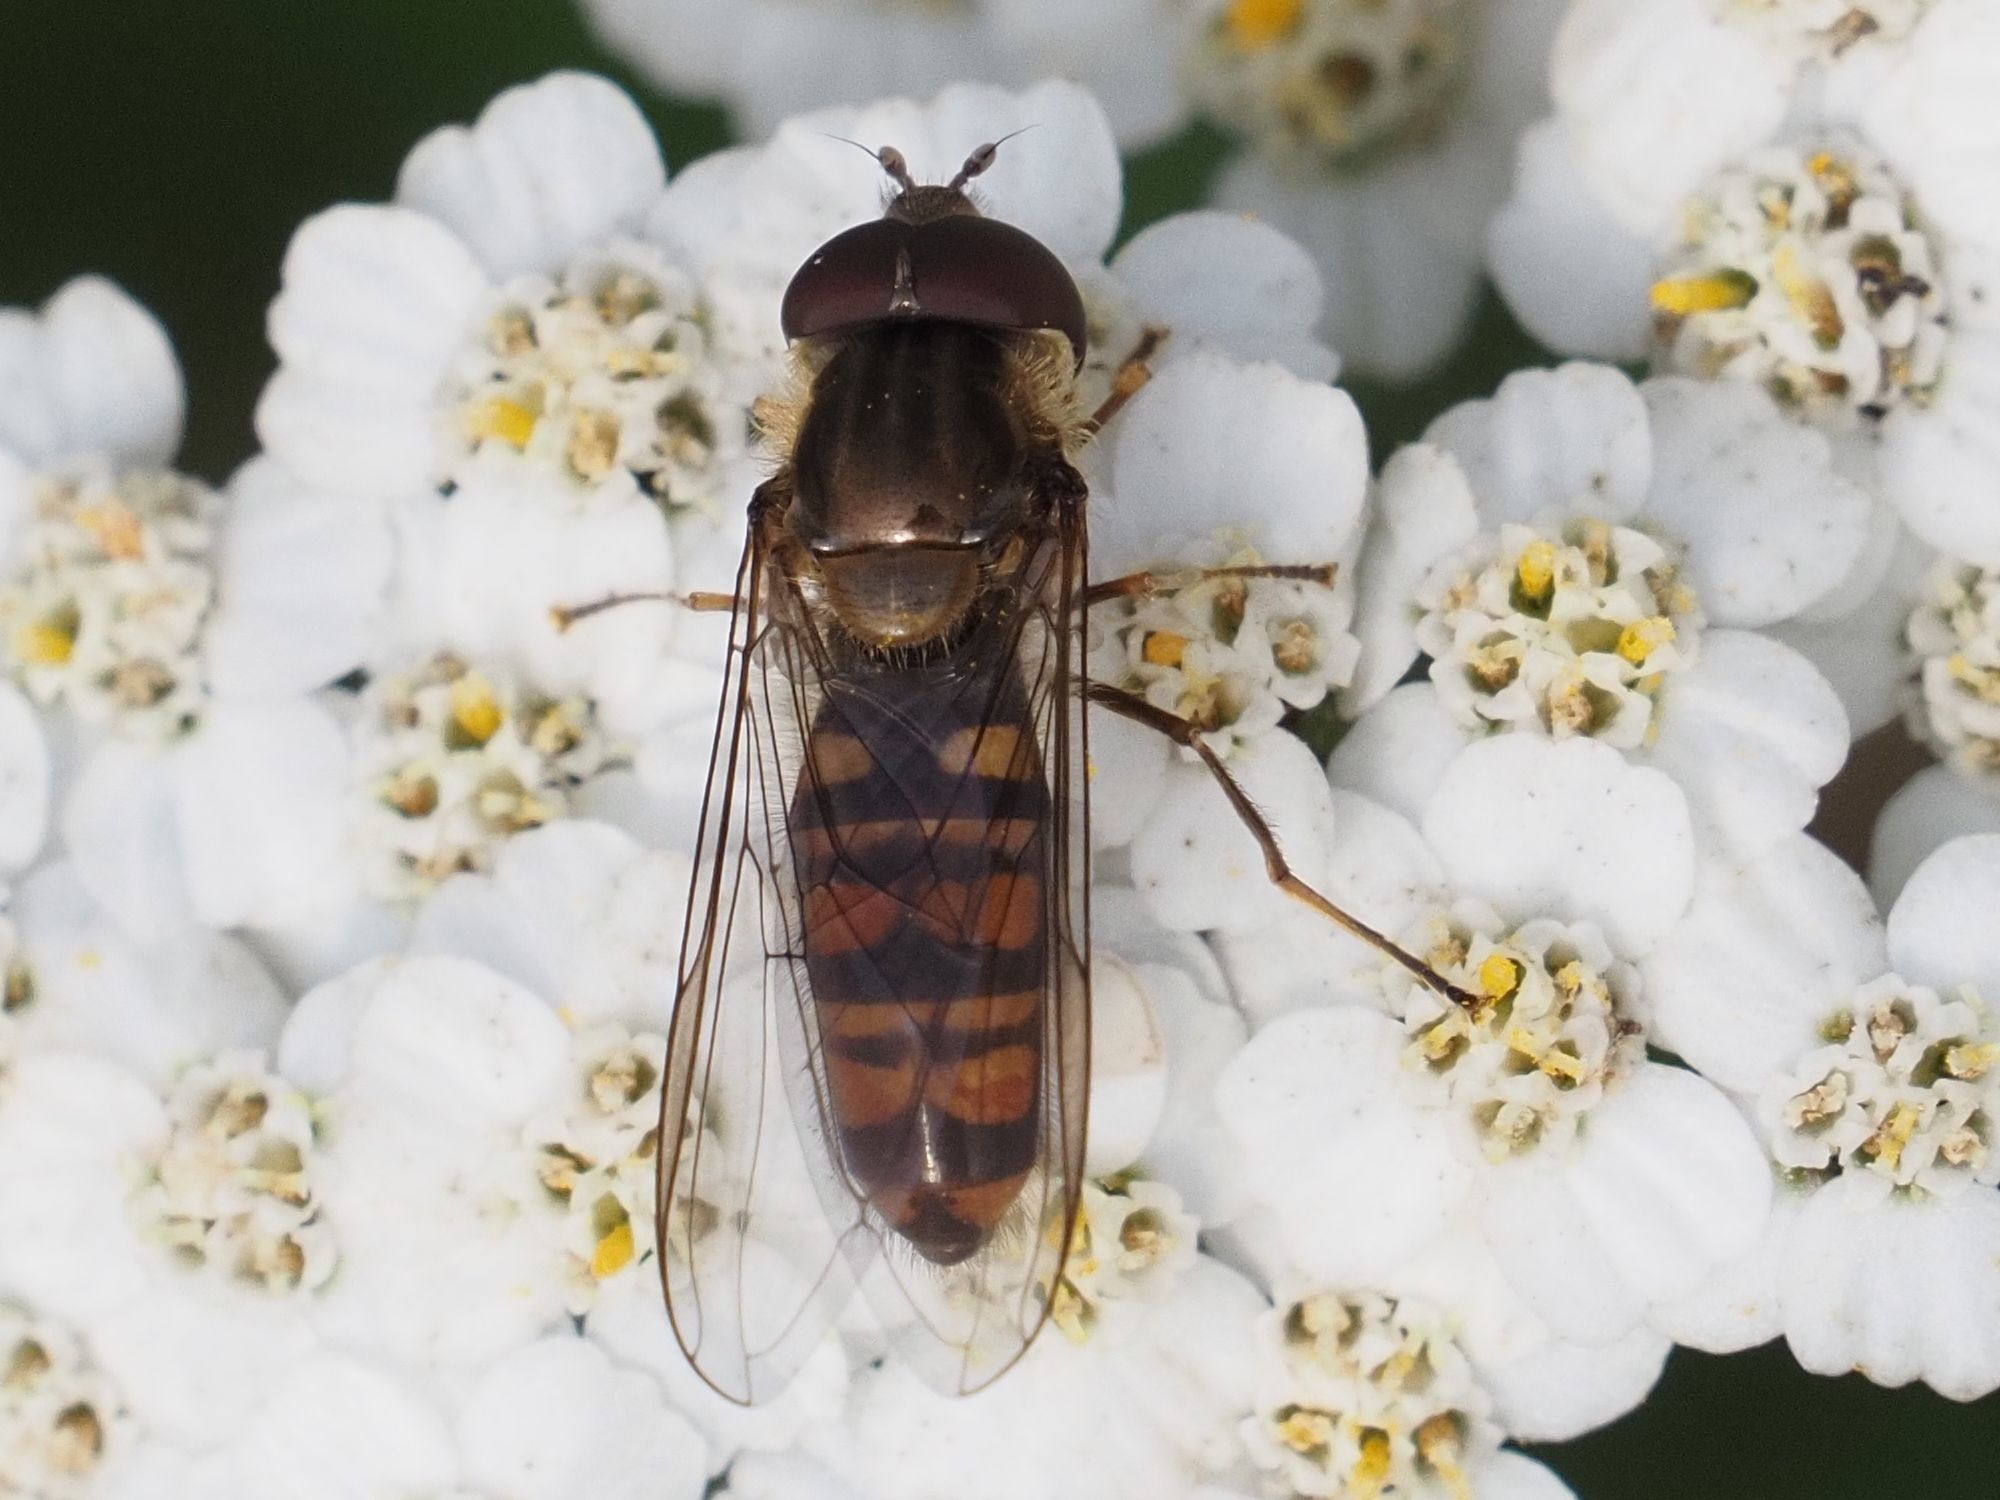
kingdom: Animalia
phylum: Arthropoda
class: Insecta
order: Diptera
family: Syrphidae
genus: Episyrphus
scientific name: Episyrphus balteatus
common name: Marmalade hoverfly
